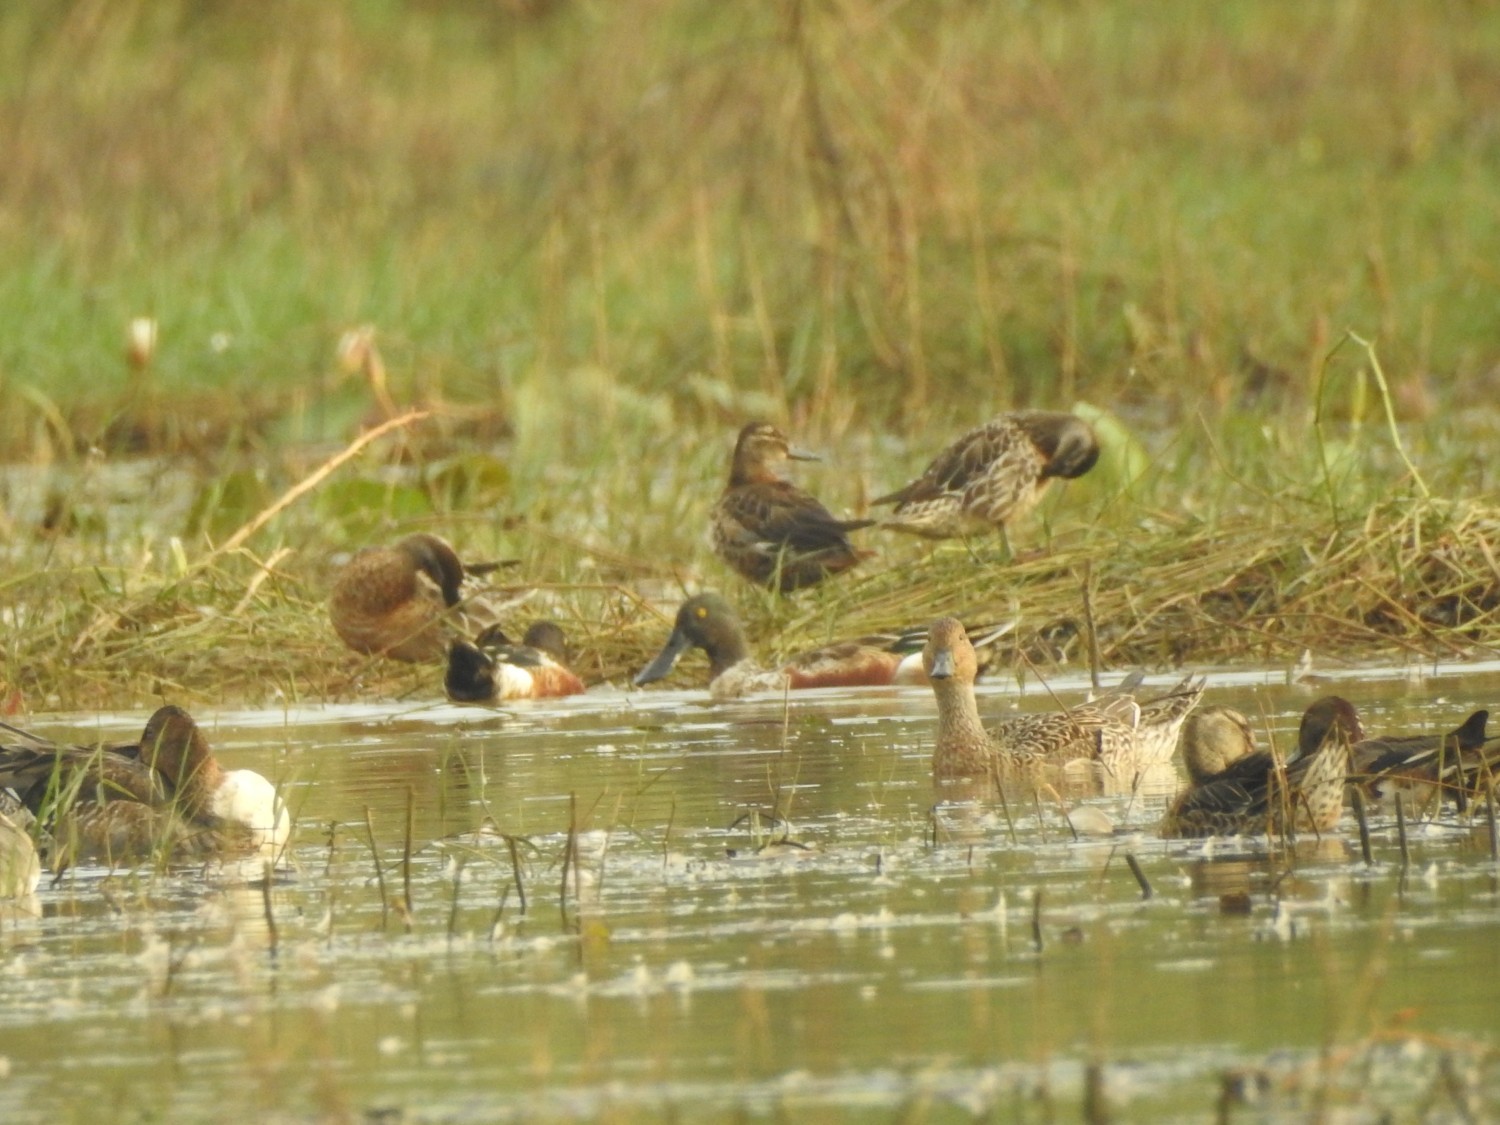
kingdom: Animalia
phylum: Chordata
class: Aves
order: Anseriformes
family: Anatidae
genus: Spatula
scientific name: Spatula clypeata
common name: Northern shoveler
